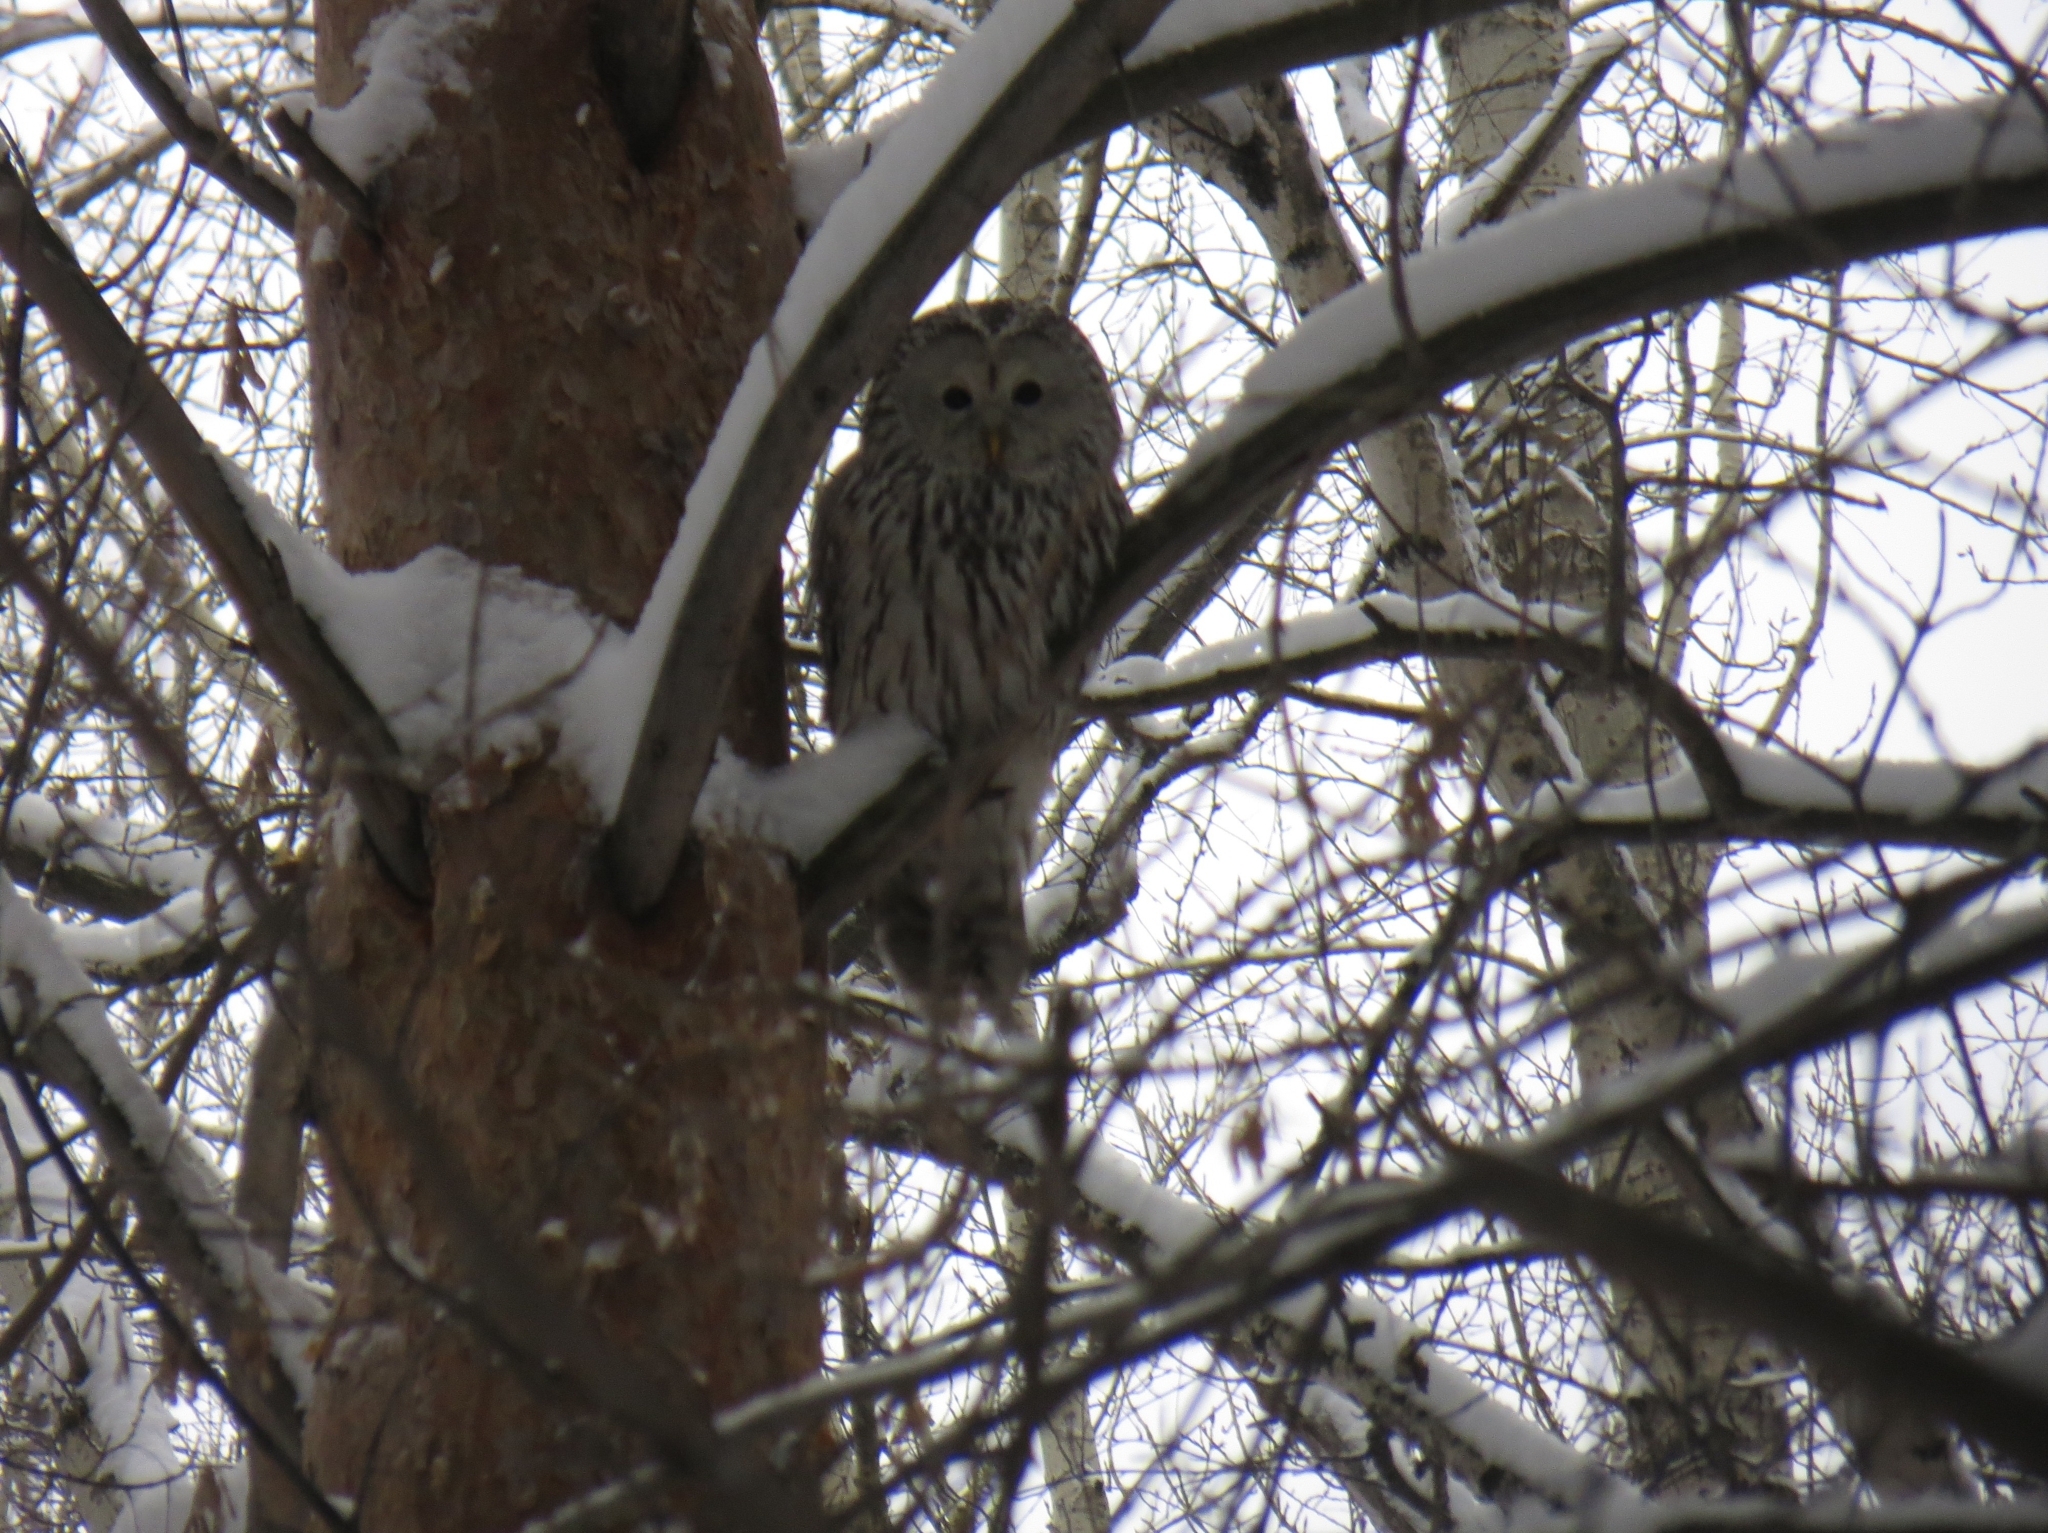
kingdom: Animalia
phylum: Chordata
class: Aves
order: Strigiformes
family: Strigidae
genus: Strix
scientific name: Strix uralensis
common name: Ural owl
